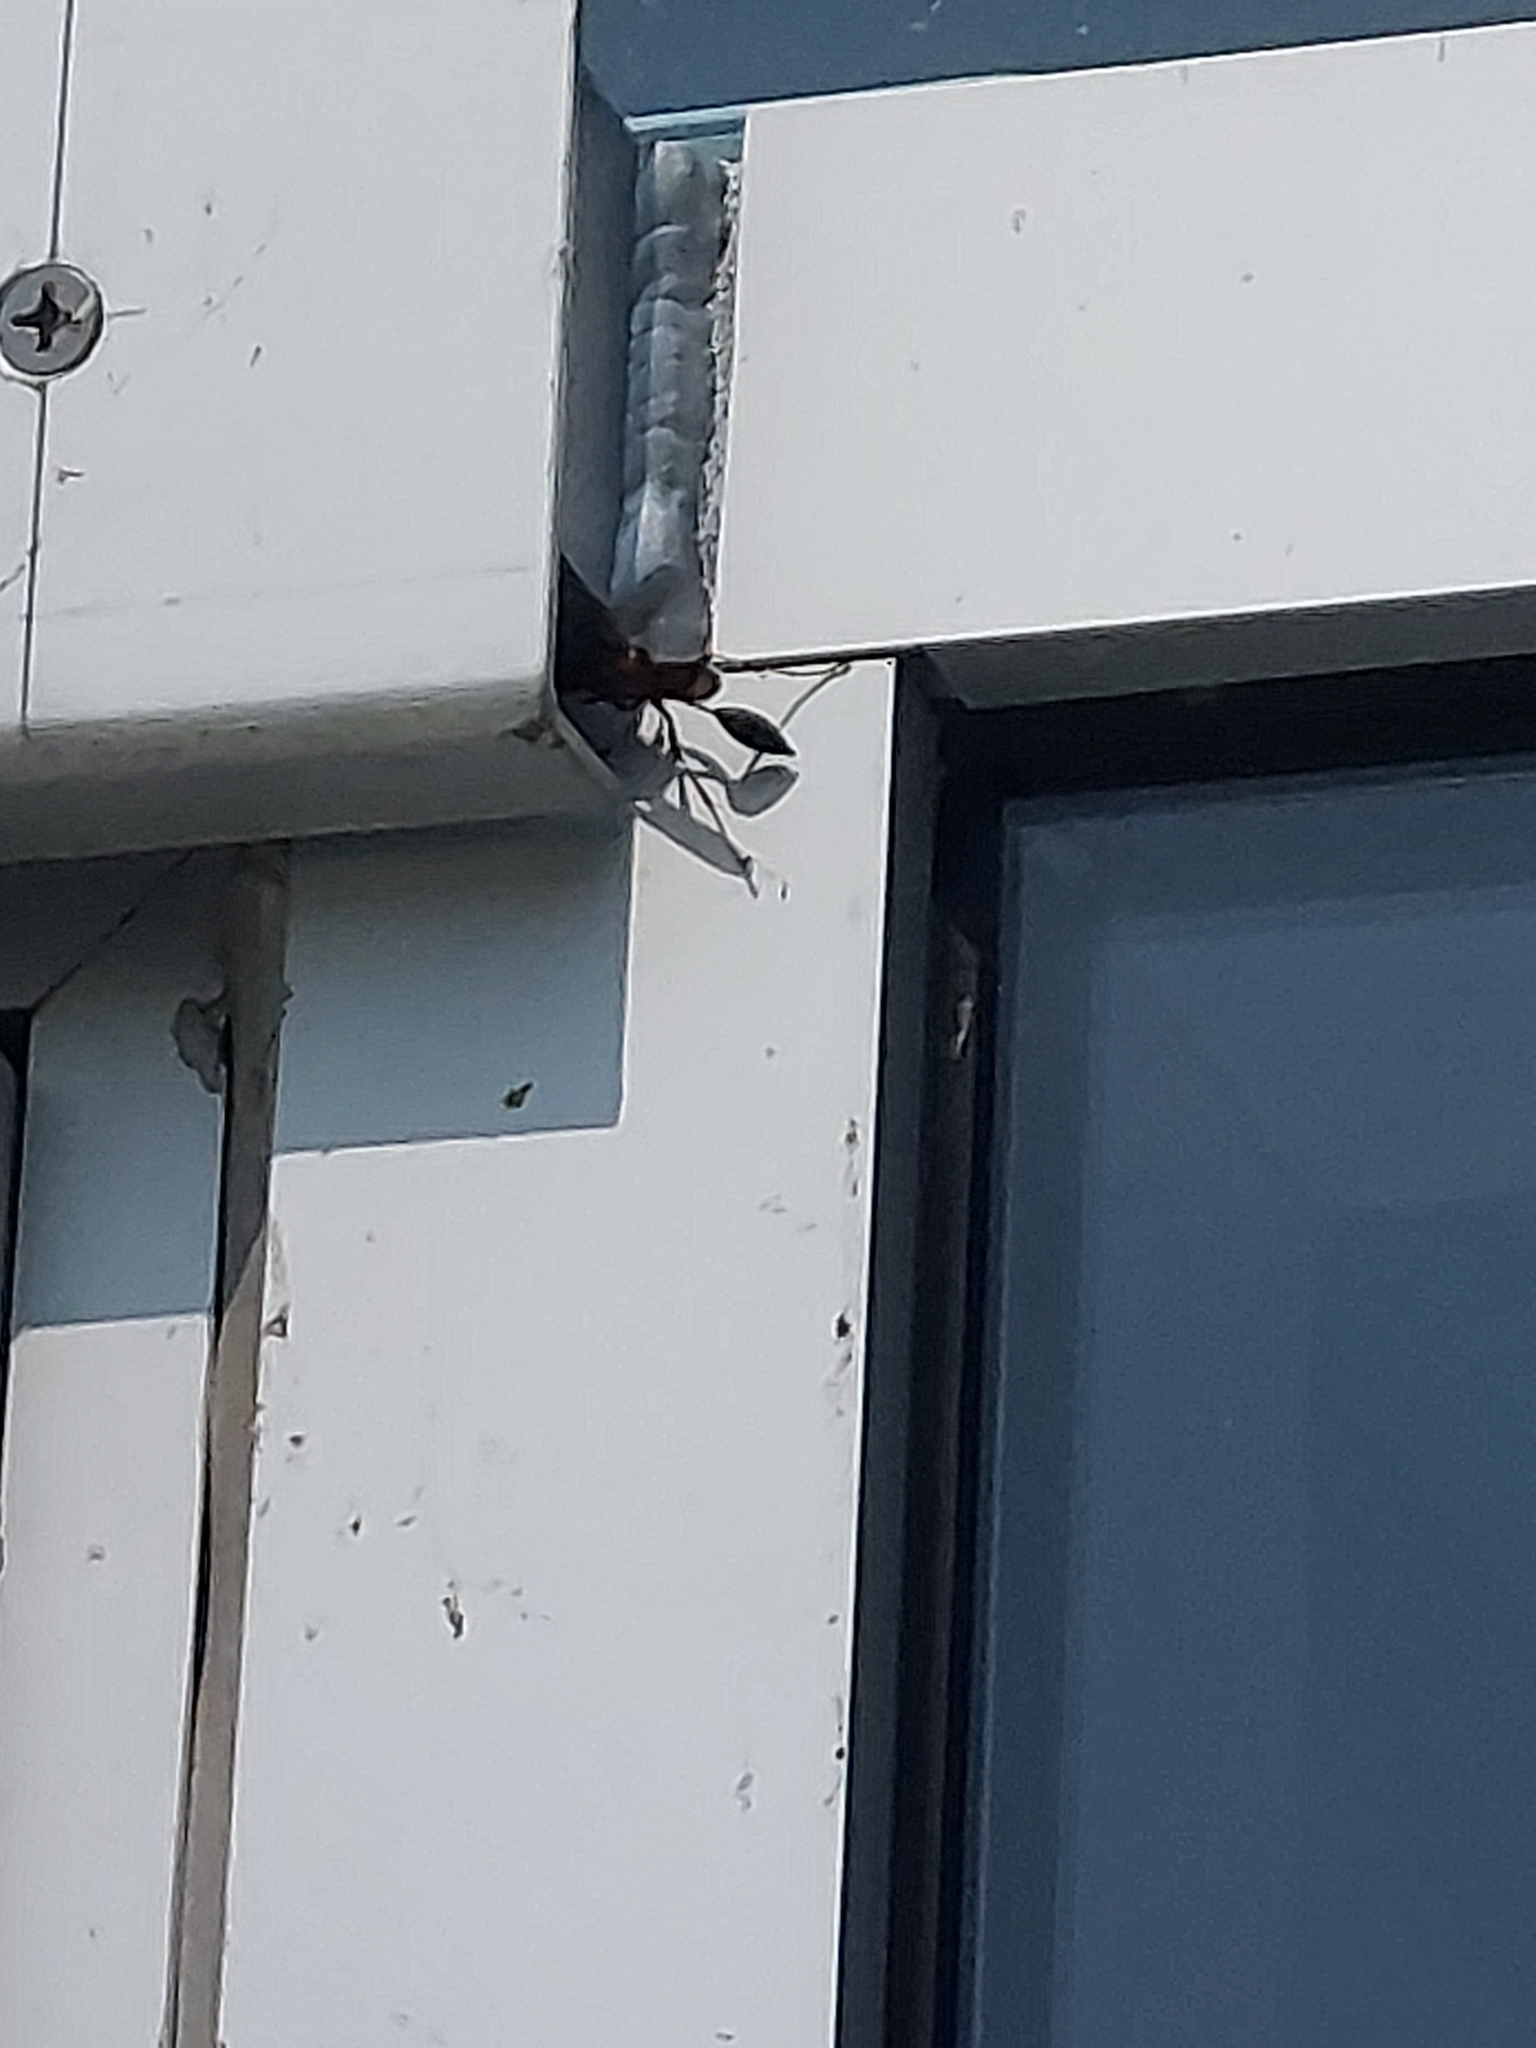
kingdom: Animalia
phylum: Arthropoda
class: Insecta
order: Hymenoptera
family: Sphecidae
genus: Sceliphron
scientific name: Sceliphron caementarium
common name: Mud dauber
